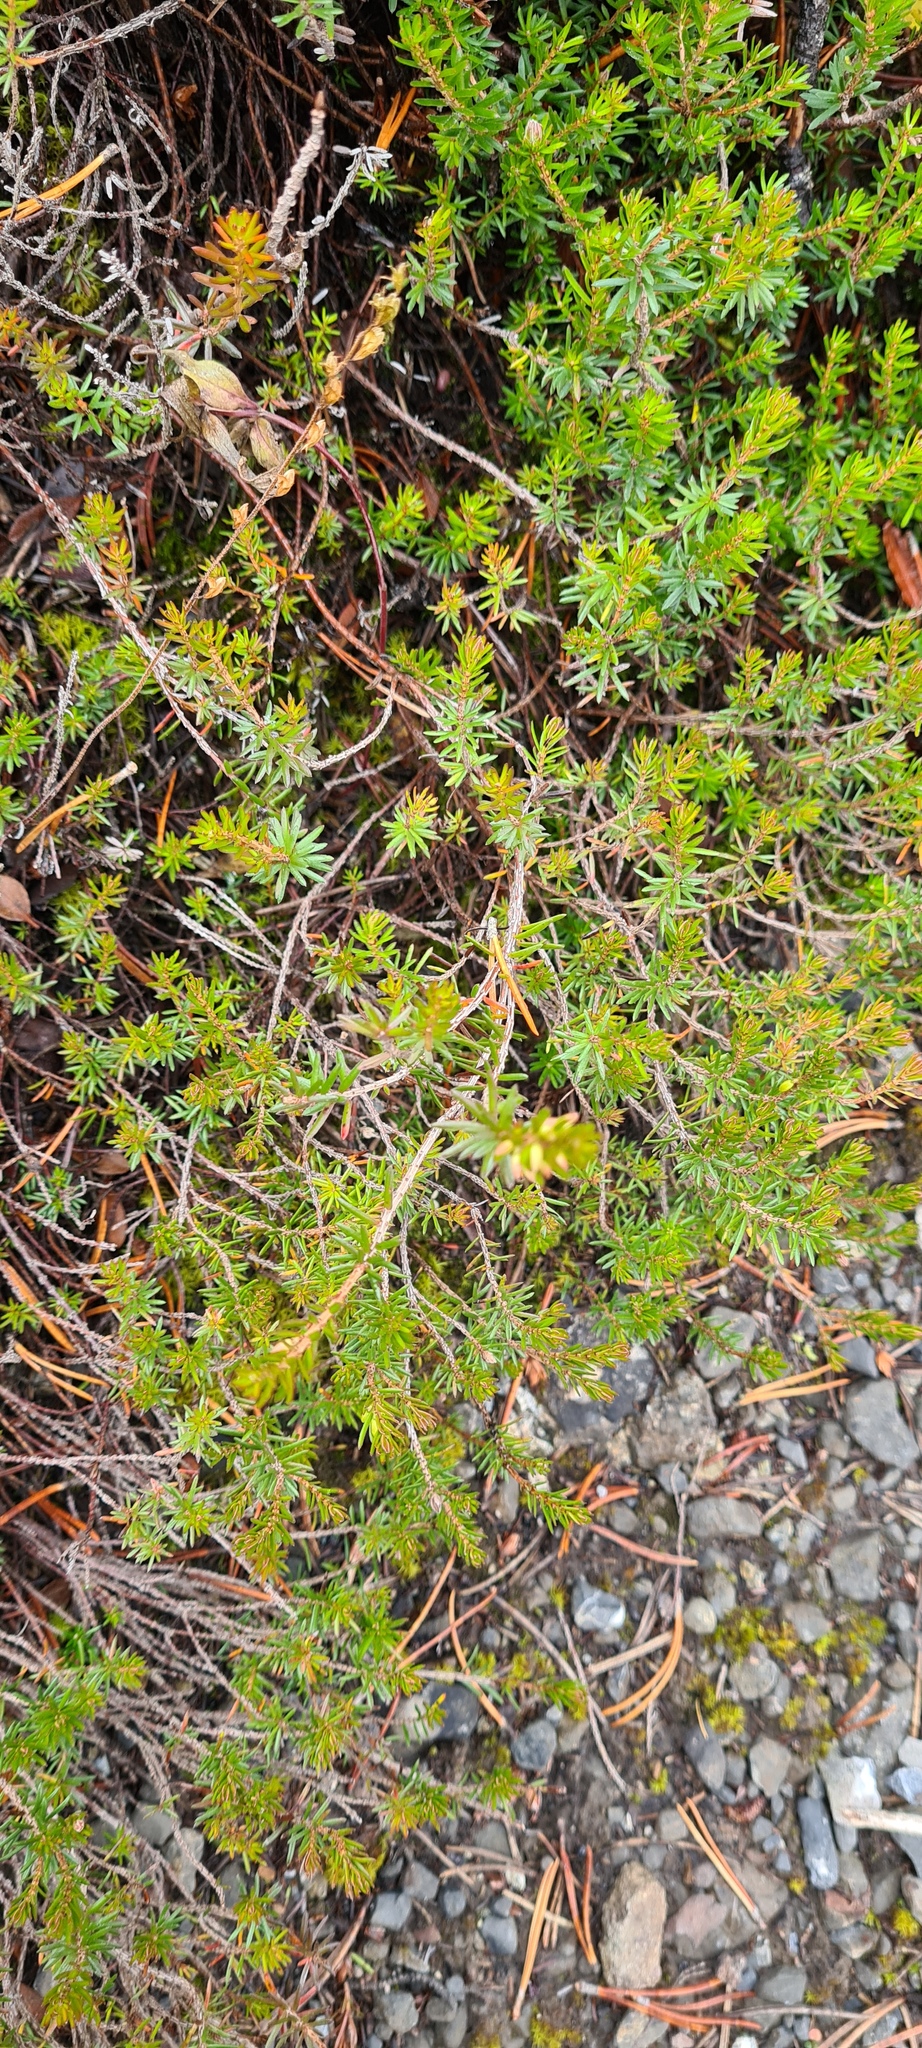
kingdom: Plantae
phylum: Tracheophyta
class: Magnoliopsida
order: Ericales
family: Ericaceae
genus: Erica
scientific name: Erica carnea
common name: Winter heath
